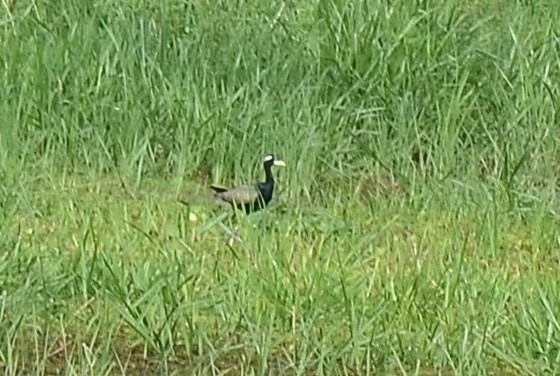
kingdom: Animalia
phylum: Chordata
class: Aves
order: Charadriiformes
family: Jacanidae
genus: Metopidius
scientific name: Metopidius indicus
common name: Bronze-winged jacana
